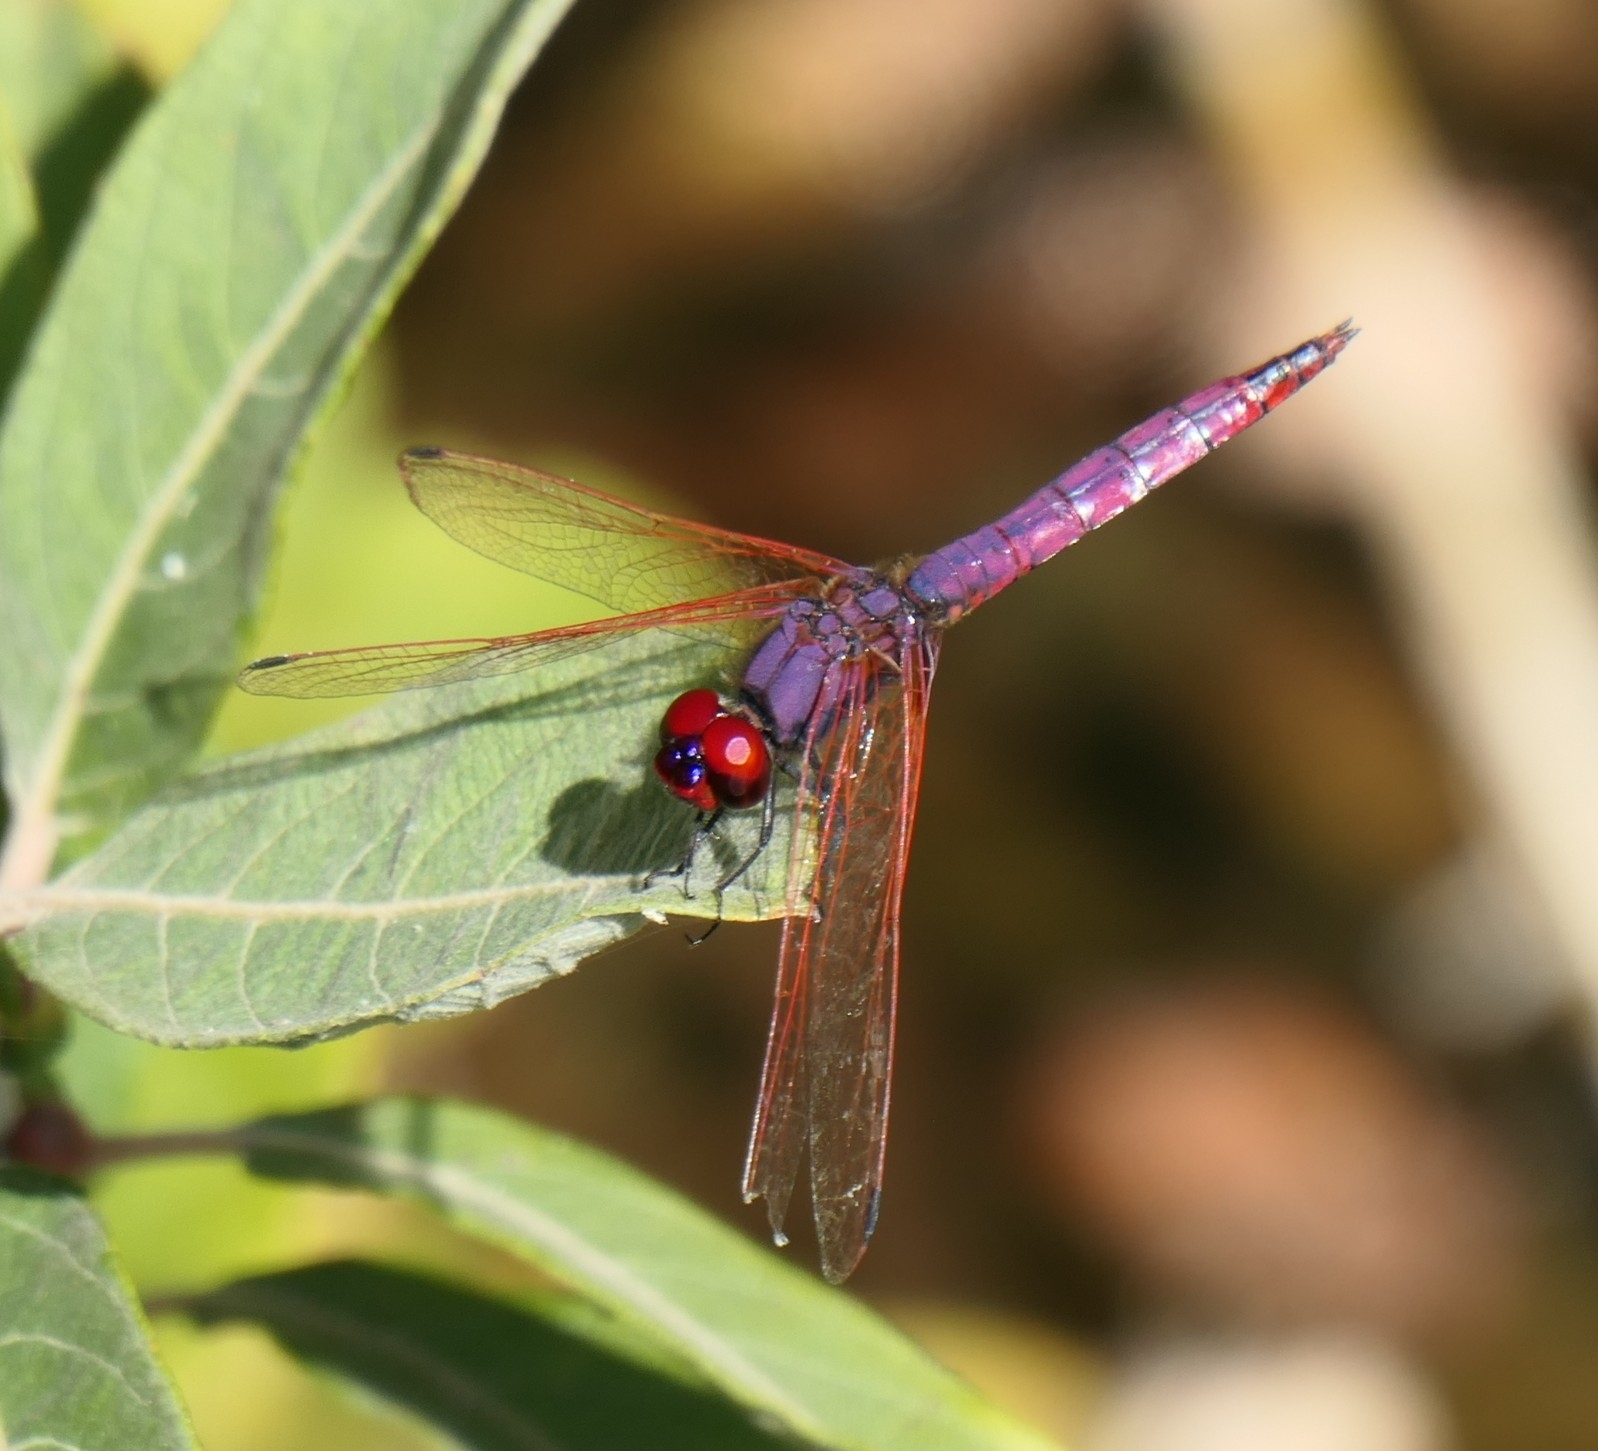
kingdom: Animalia
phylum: Arthropoda
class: Insecta
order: Odonata
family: Libellulidae
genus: Trithemis
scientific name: Trithemis annulata
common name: Violet dropwing
